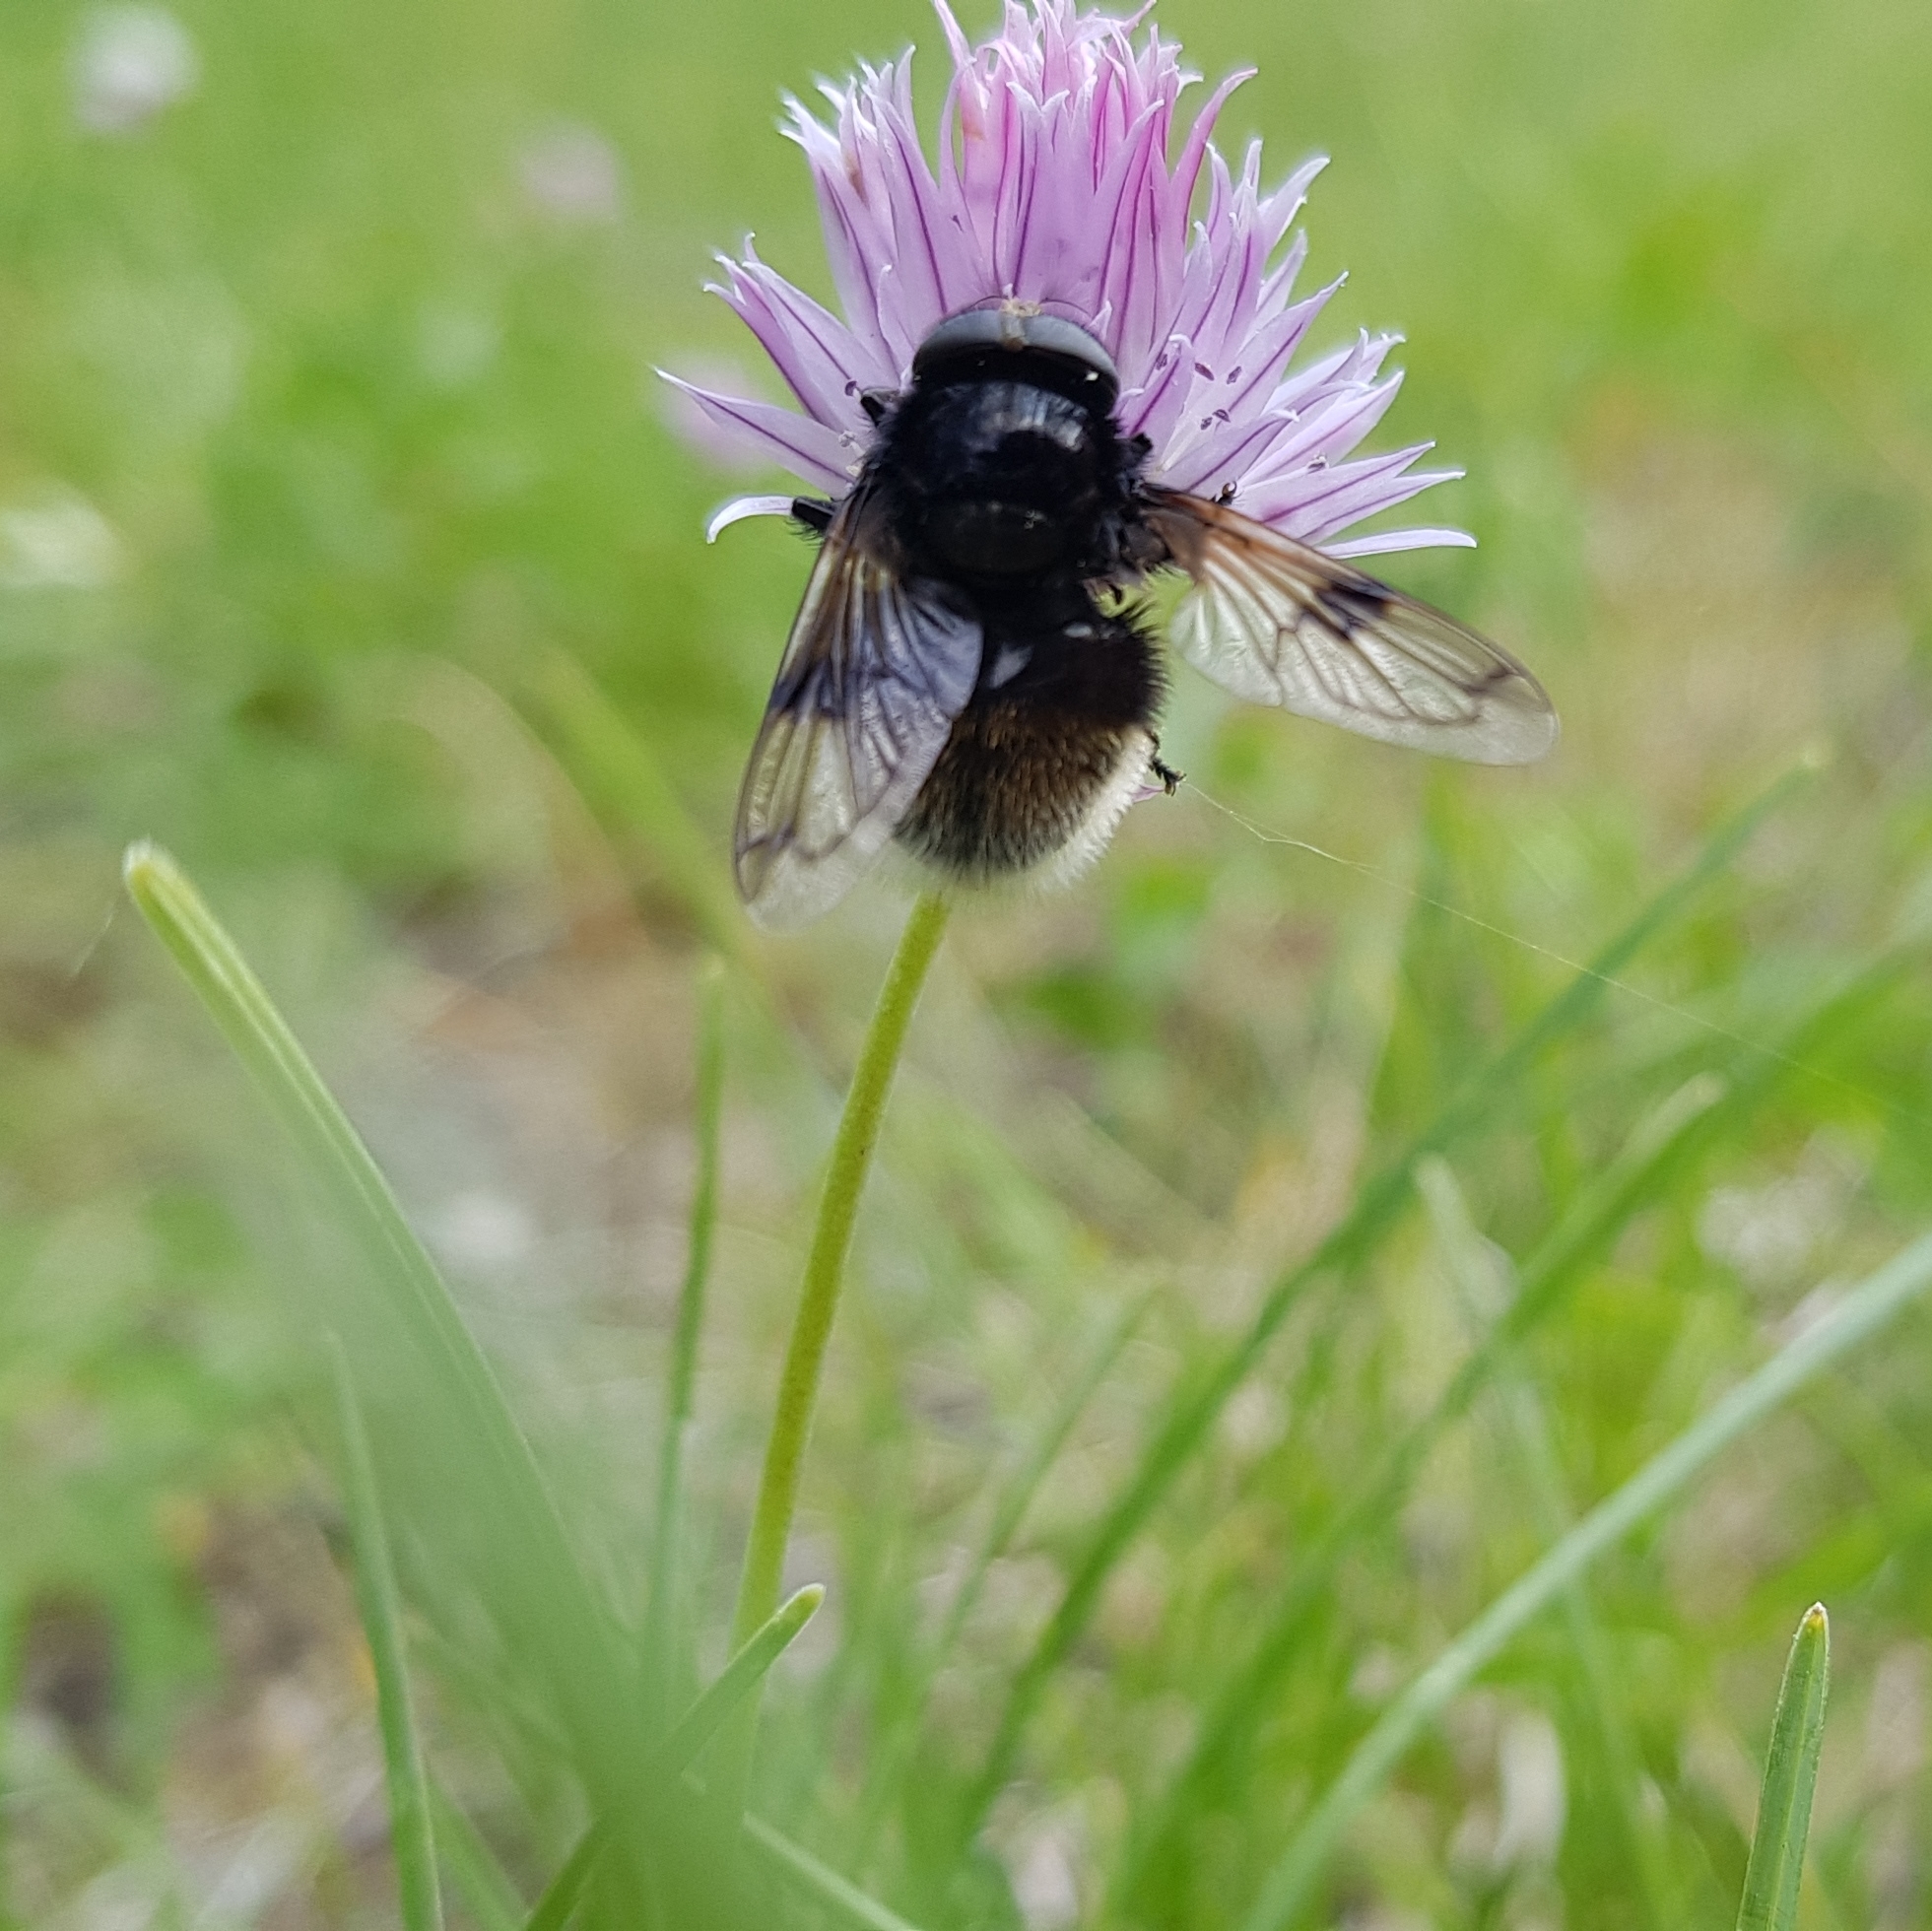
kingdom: Animalia
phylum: Arthropoda
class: Insecta
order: Diptera
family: Syrphidae
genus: Volucella
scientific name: Volucella bombylans
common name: Bumble bee hover fly
